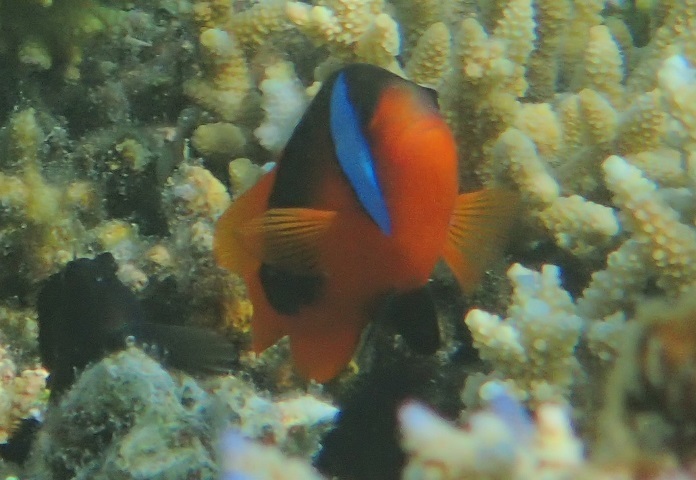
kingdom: Animalia
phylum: Chordata
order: Perciformes
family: Pomacentridae
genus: Amphiprion
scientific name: Amphiprion melanopus
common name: Black anemonefish
